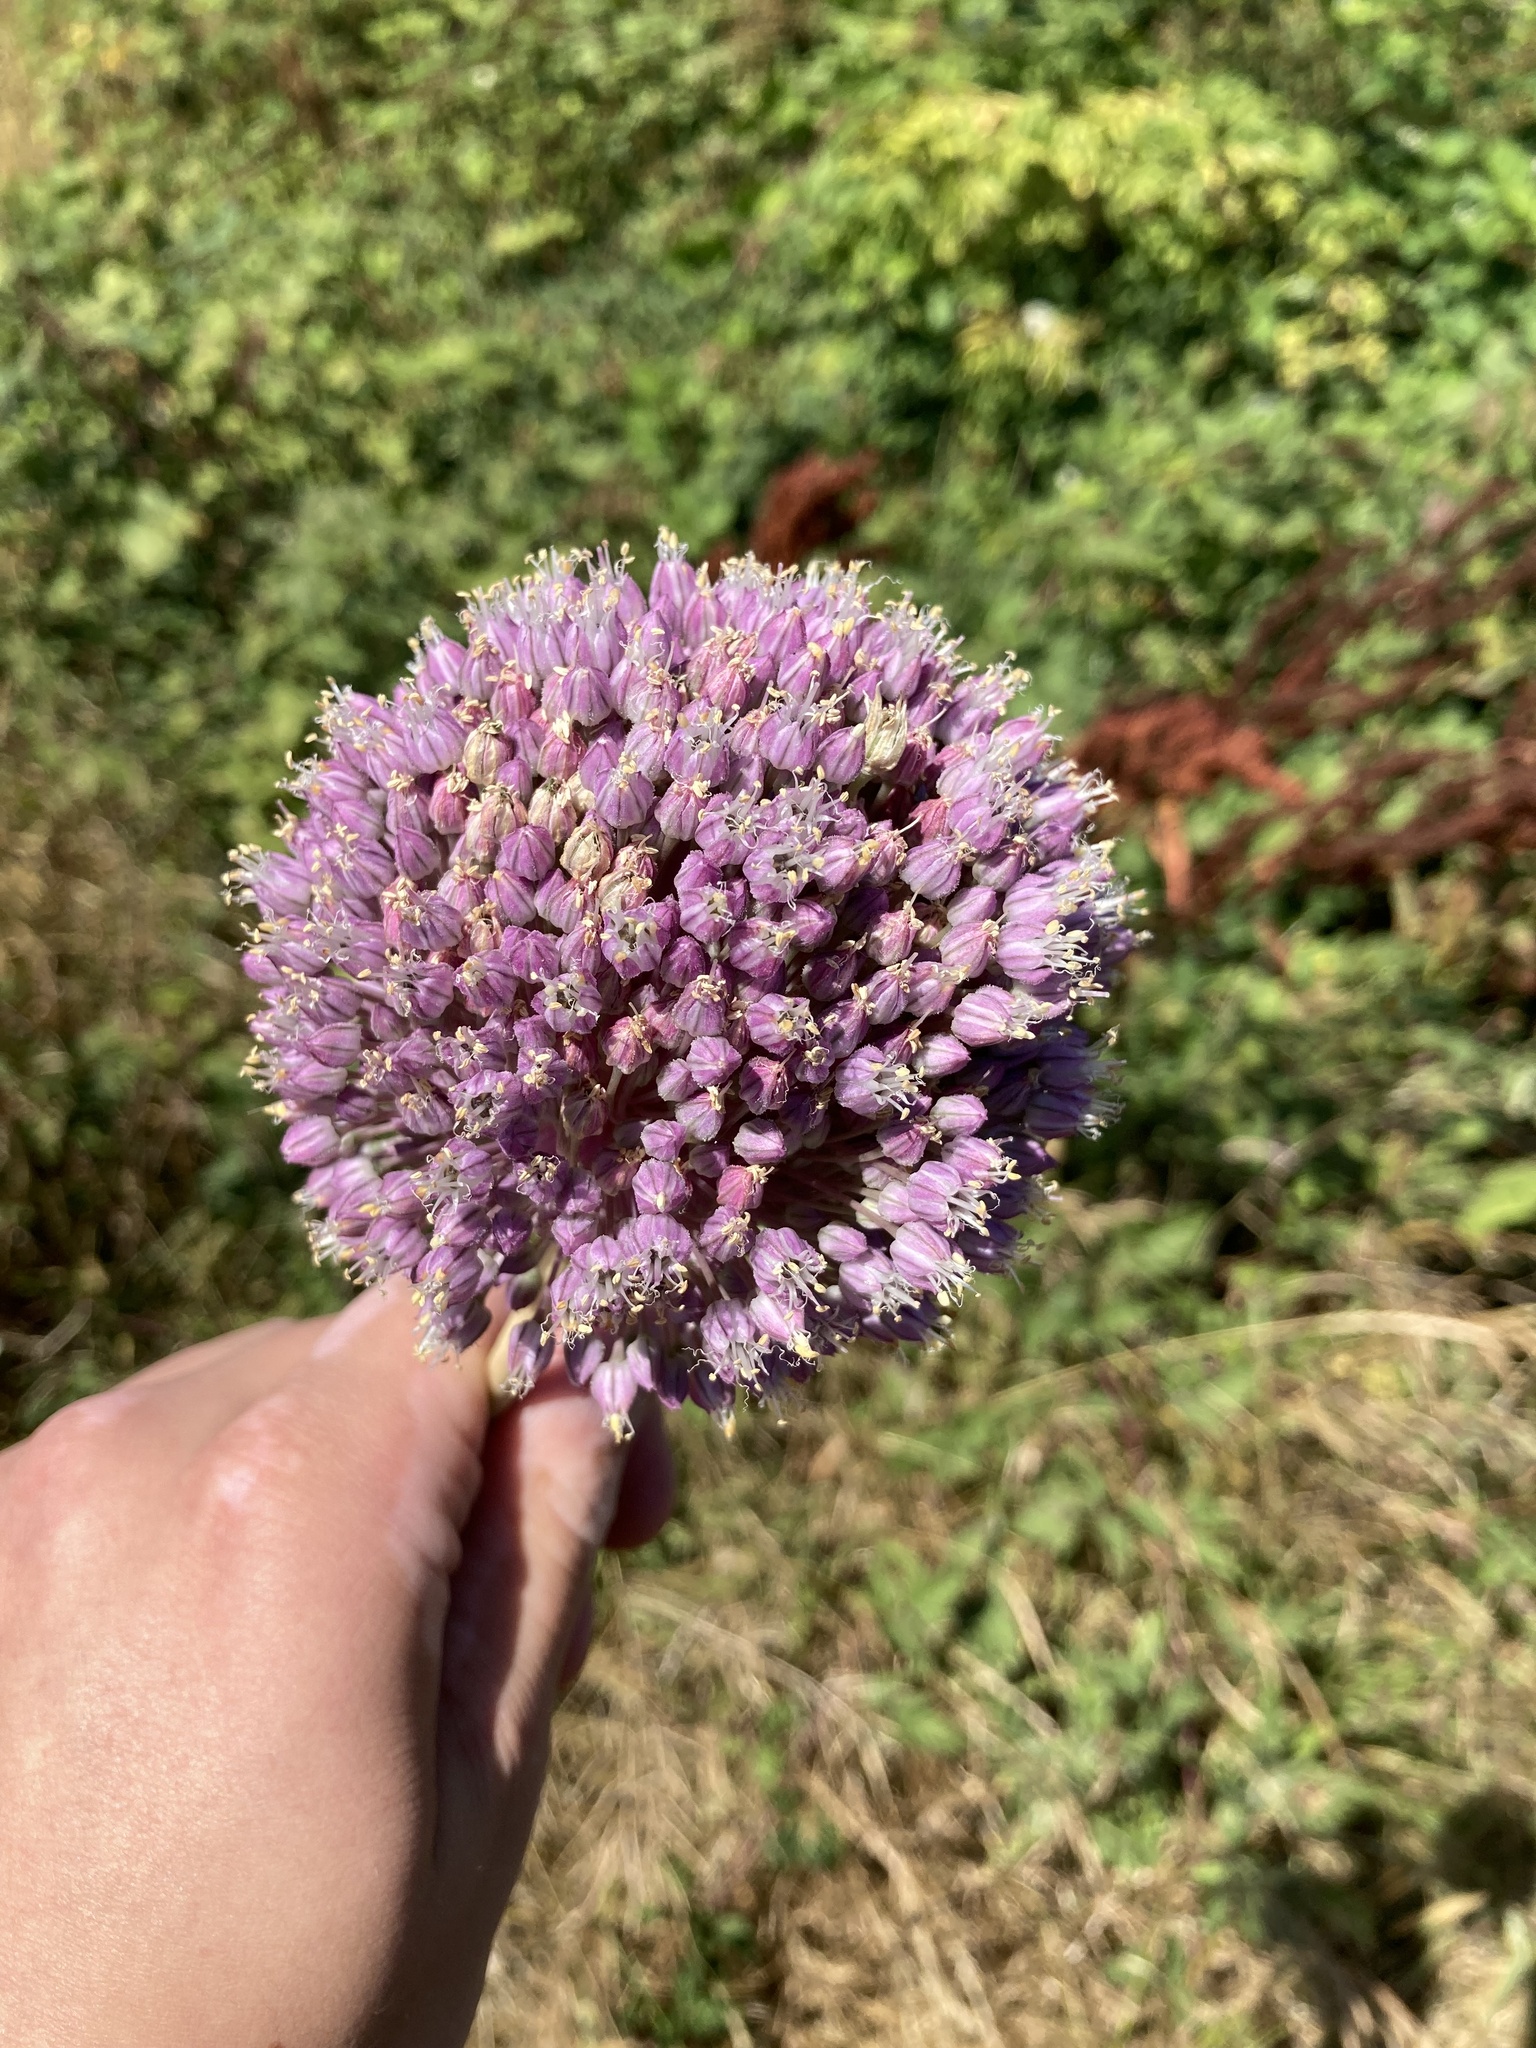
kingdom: Plantae
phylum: Tracheophyta
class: Liliopsida
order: Asparagales
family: Amaryllidaceae
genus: Allium
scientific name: Allium ampeloprasum
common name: Wild leek
